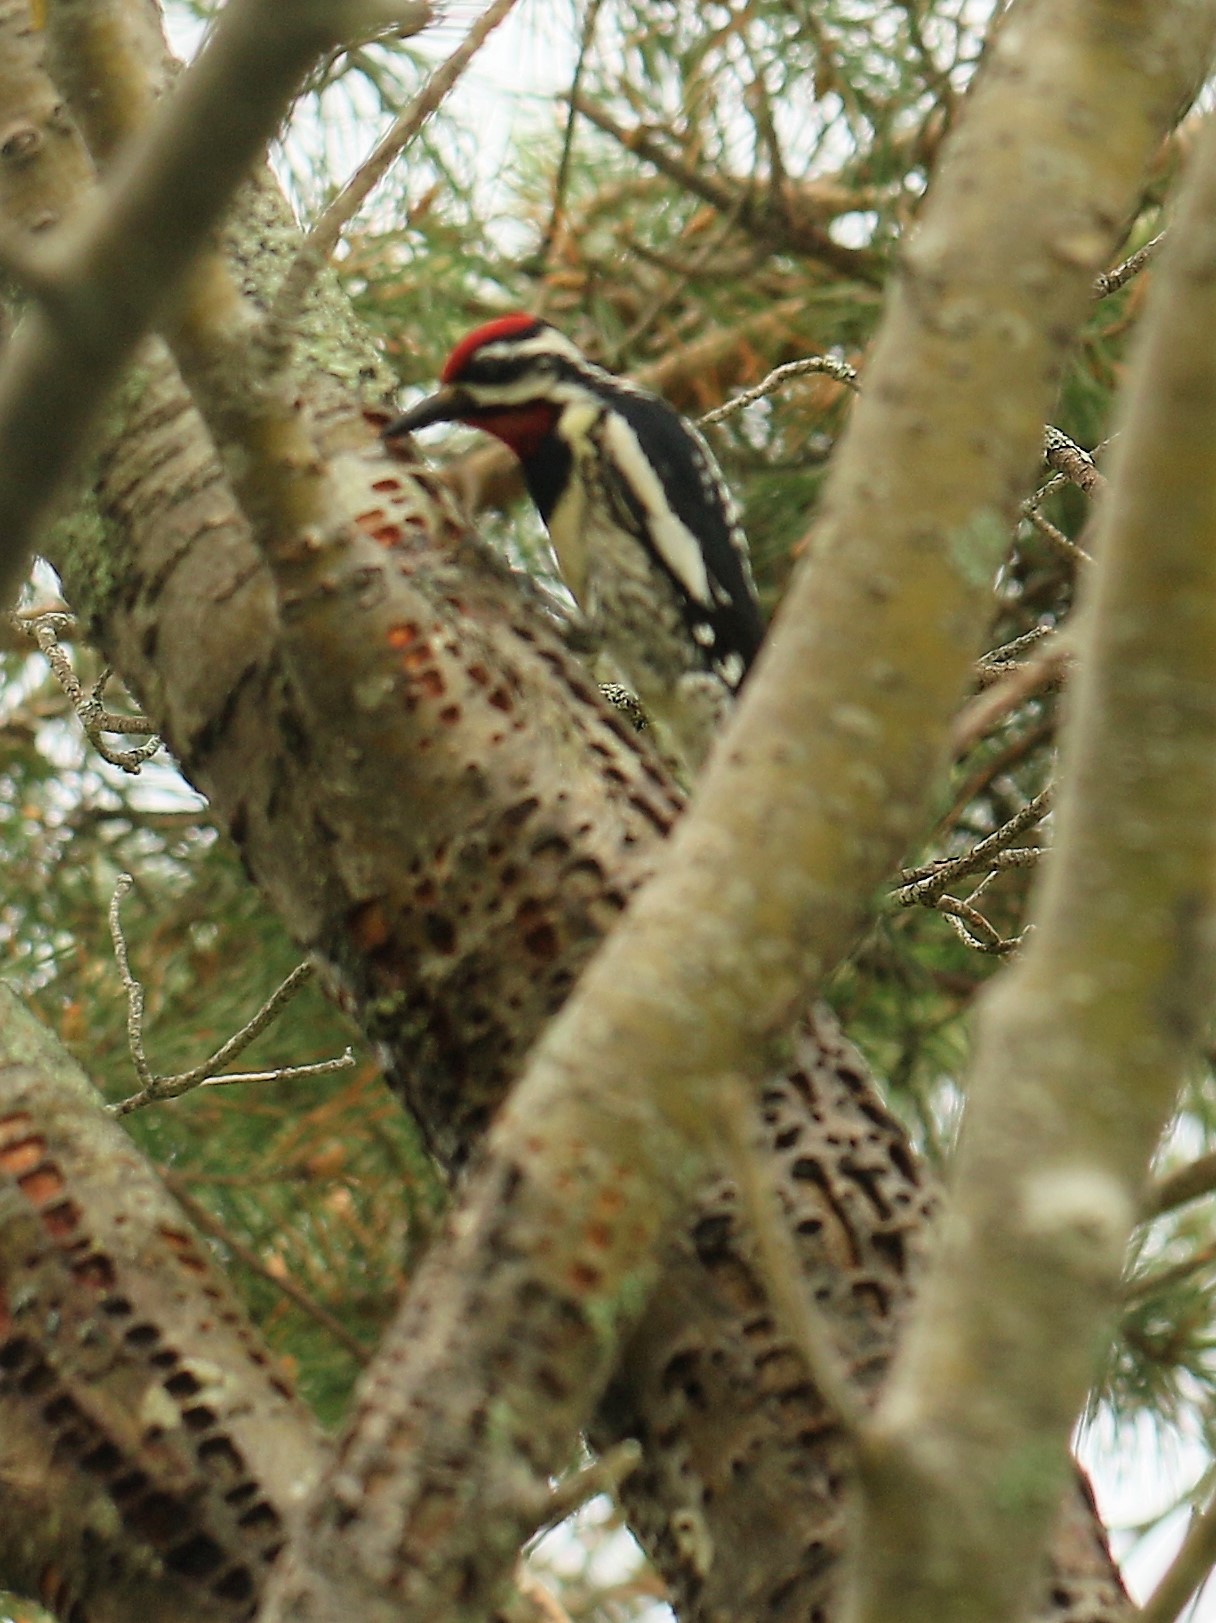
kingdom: Animalia
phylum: Chordata
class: Aves
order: Piciformes
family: Picidae
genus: Sphyrapicus
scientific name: Sphyrapicus varius
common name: Yellow-bellied sapsucker
